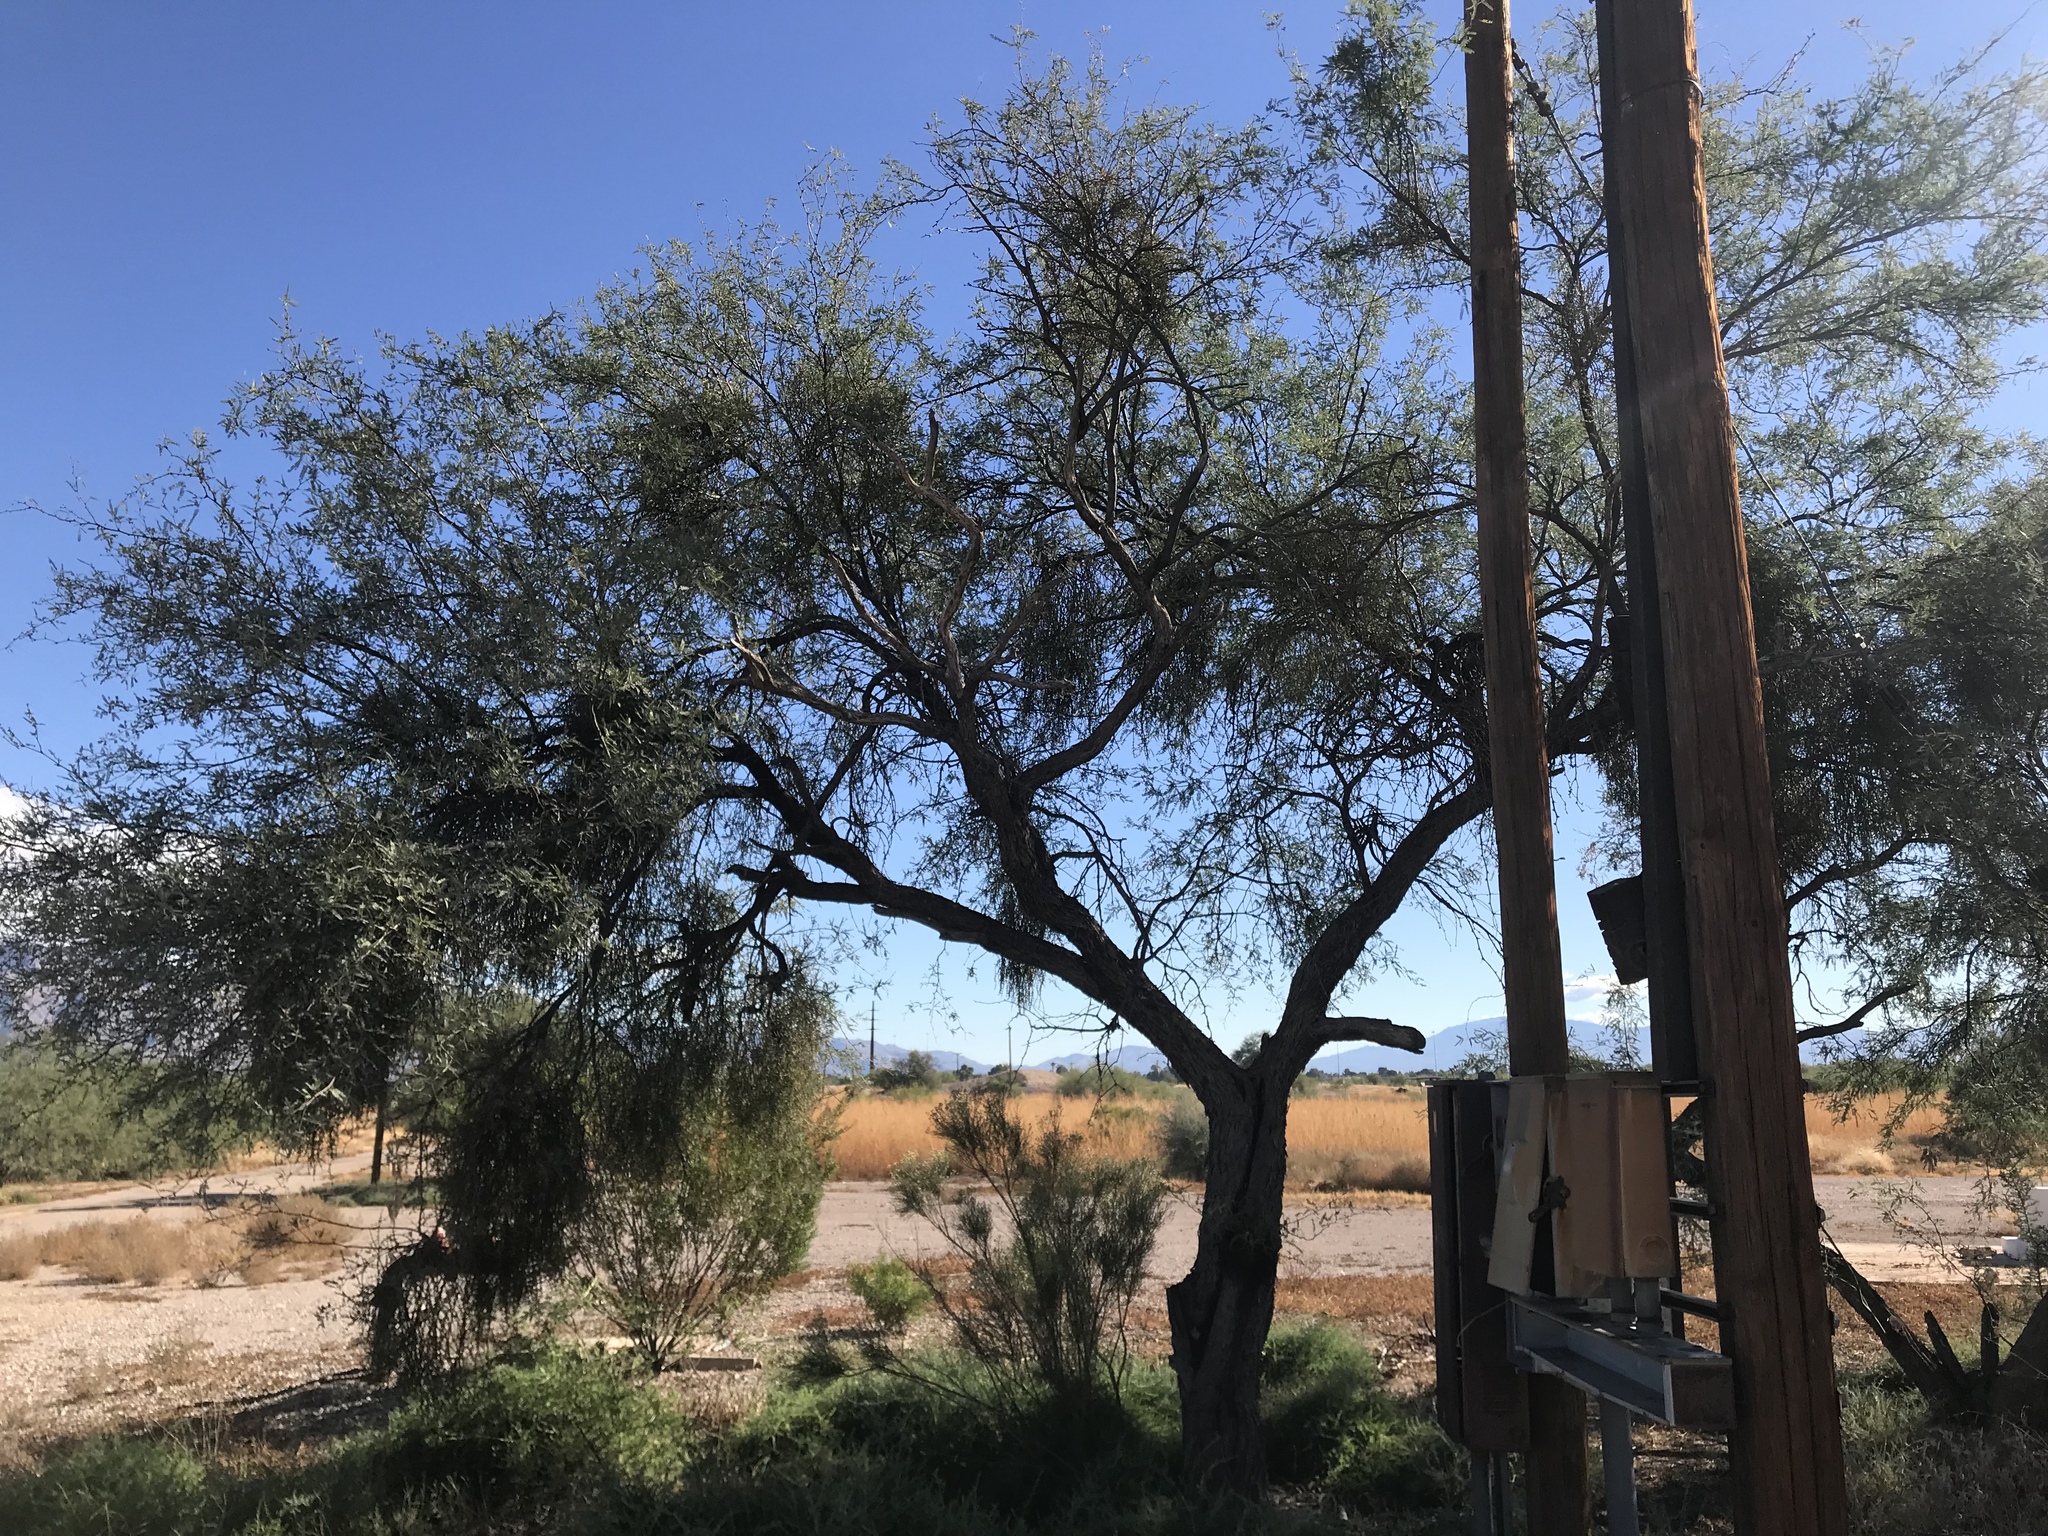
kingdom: Plantae
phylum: Tracheophyta
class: Magnoliopsida
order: Fabales
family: Fabaceae
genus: Prosopis
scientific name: Prosopis velutina
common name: Velvet mesquite
